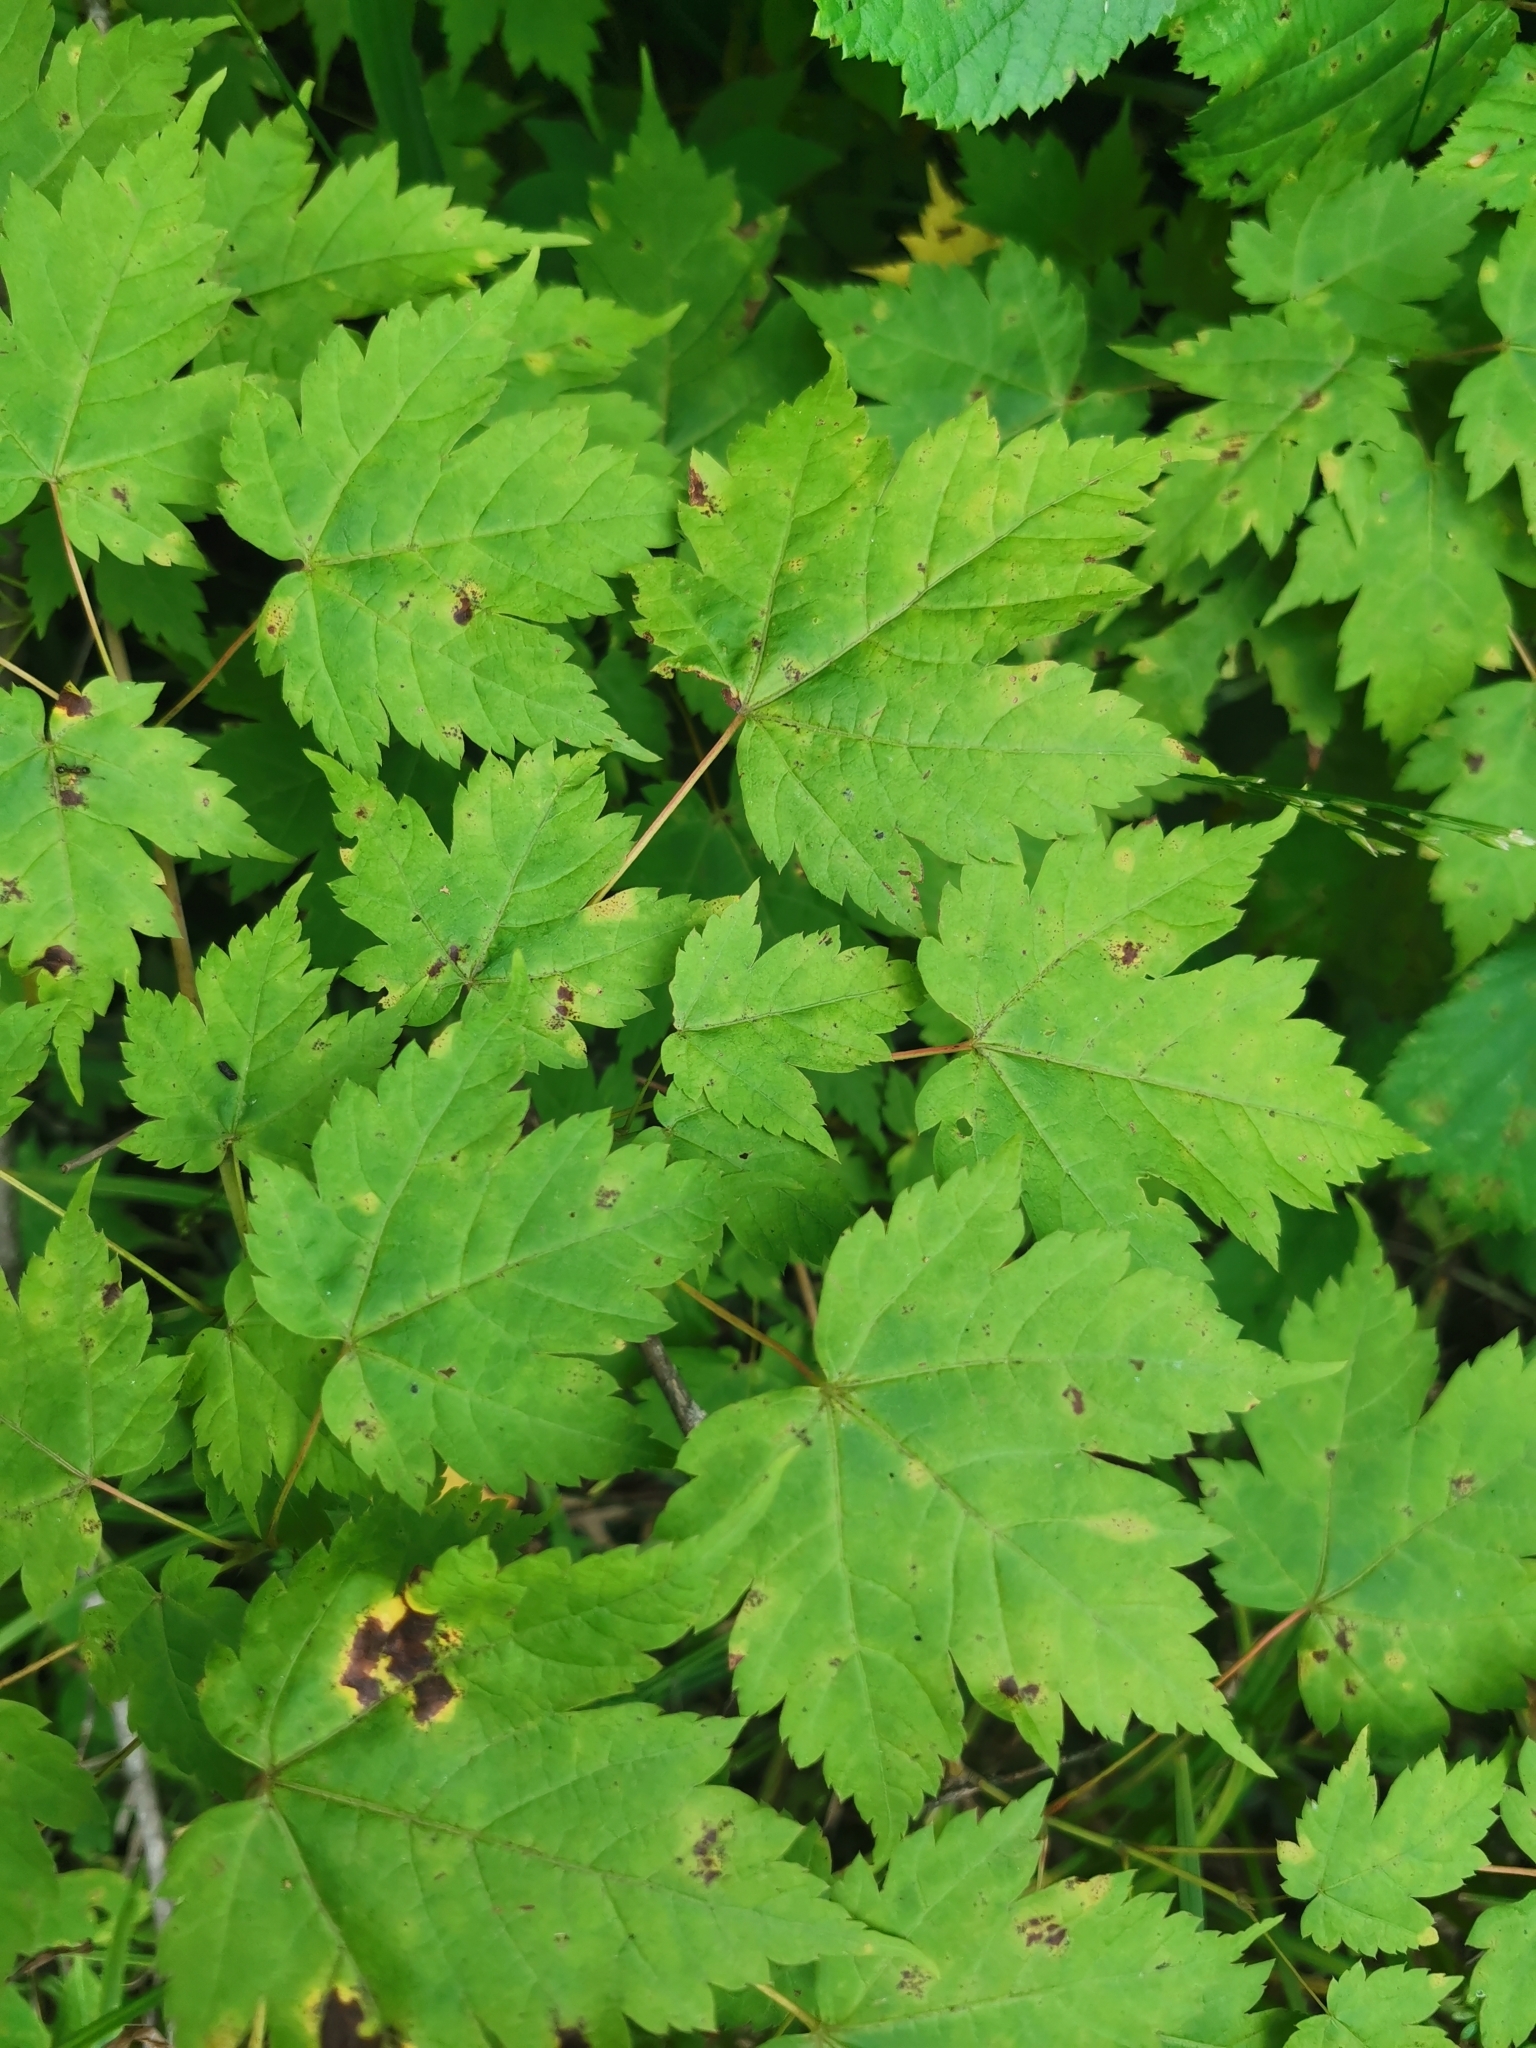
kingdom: Plantae
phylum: Tracheophyta
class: Magnoliopsida
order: Sapindales
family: Sapindaceae
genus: Acer
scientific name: Acer barbinerve
